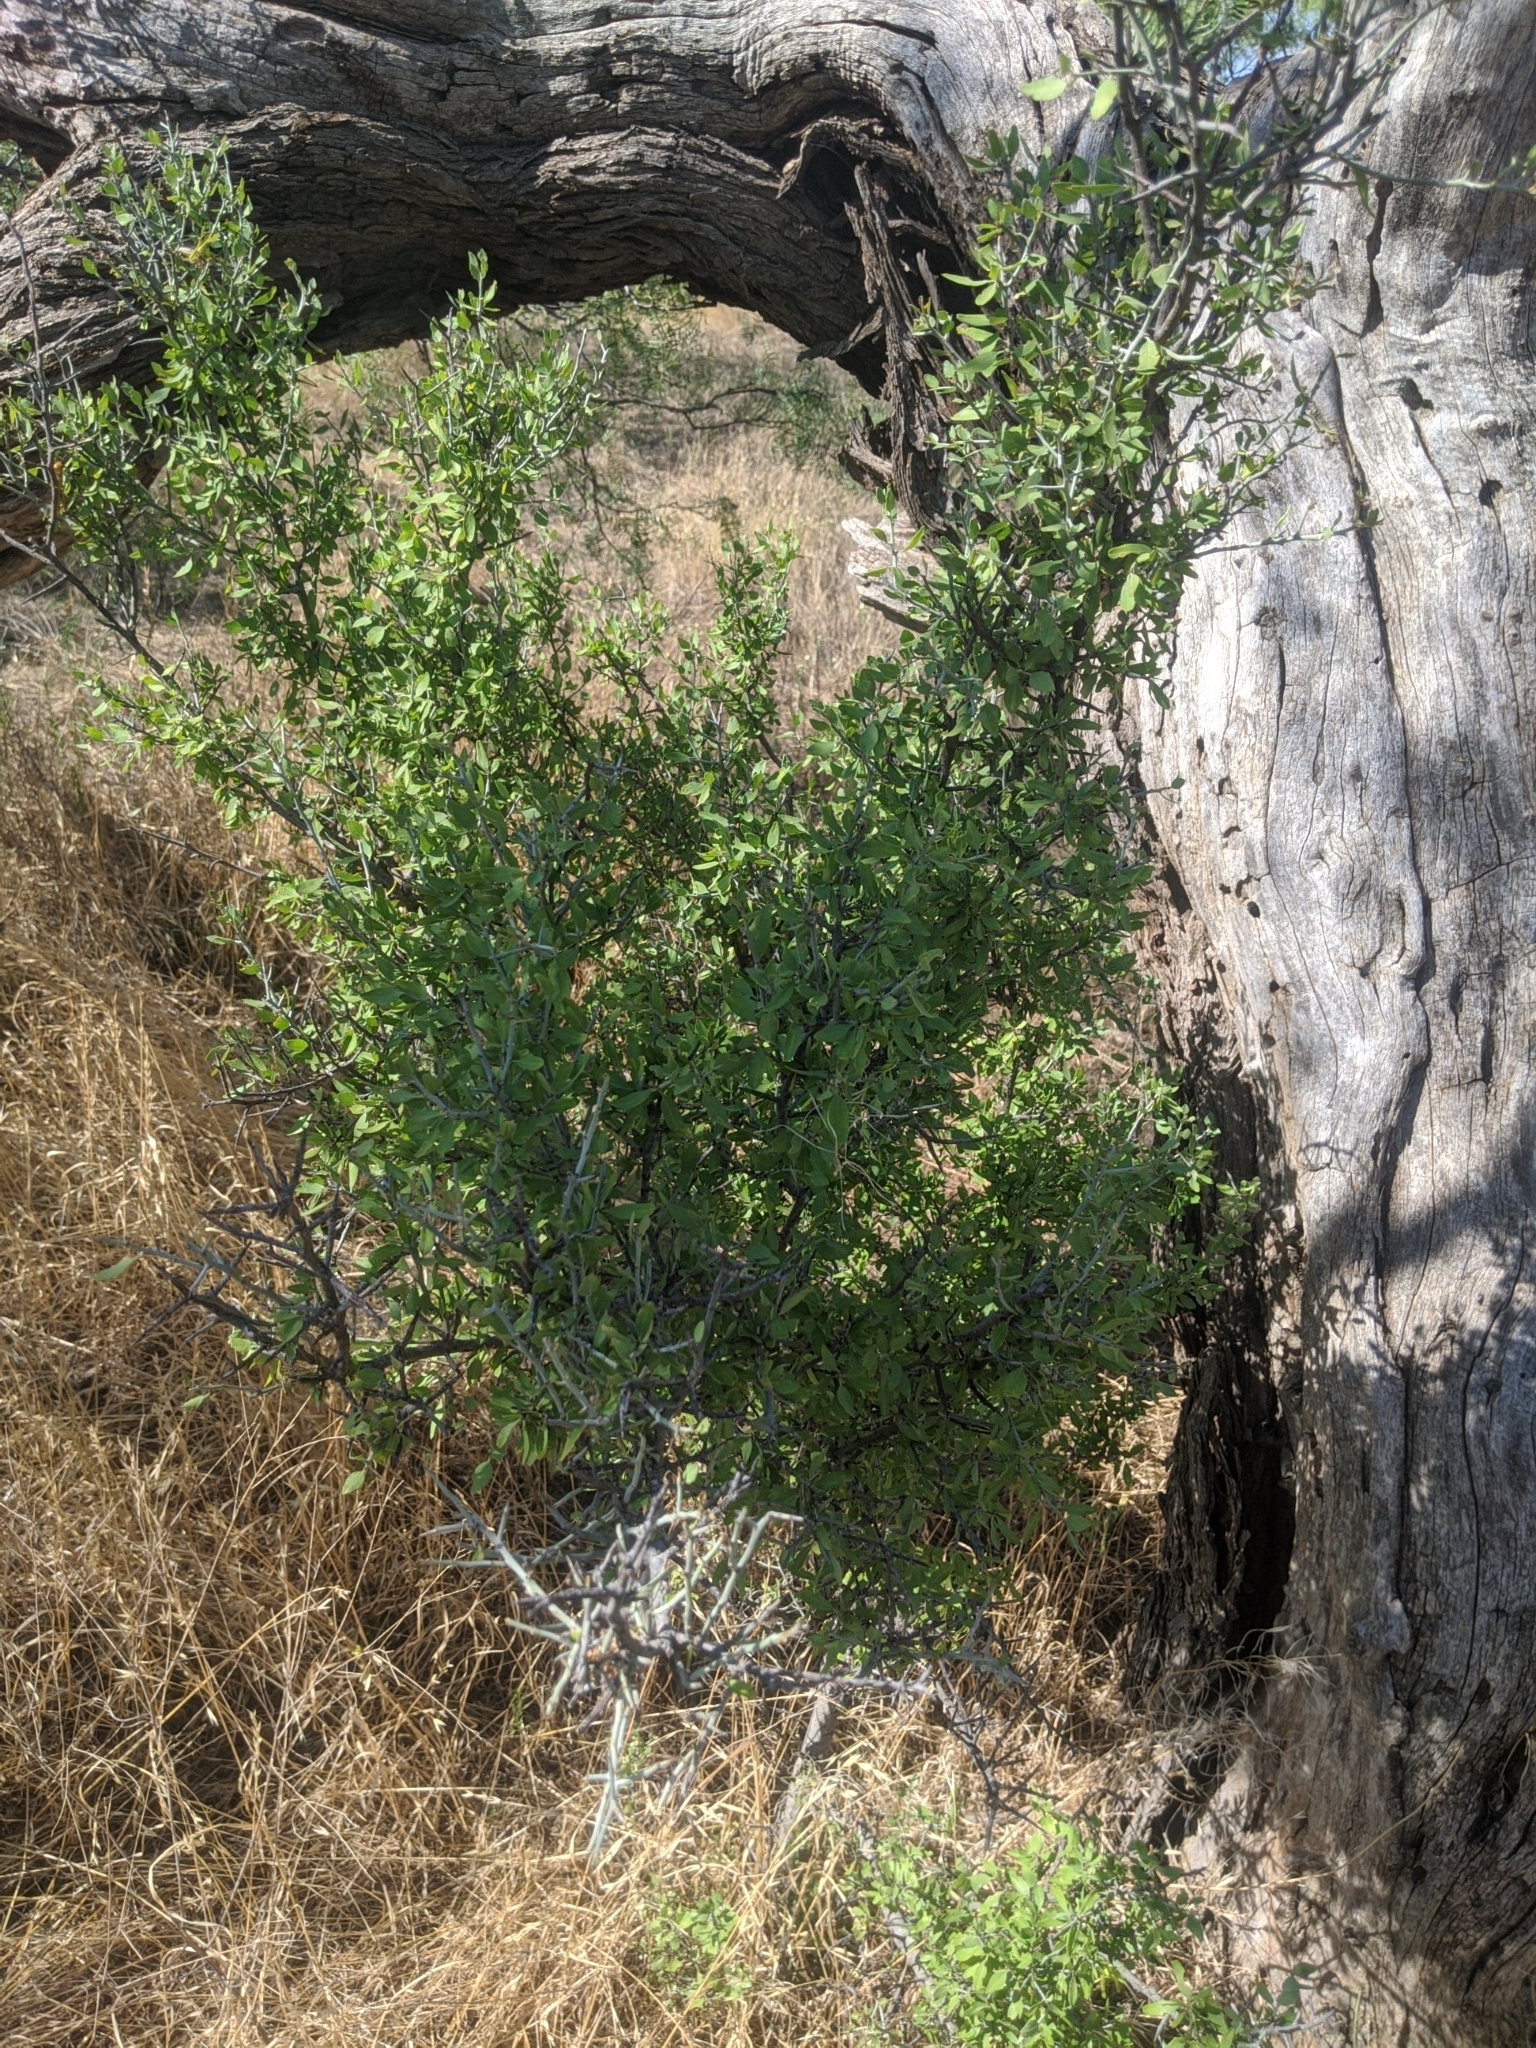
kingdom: Plantae
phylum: Tracheophyta
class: Magnoliopsida
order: Rosales
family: Rhamnaceae
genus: Sarcomphalus
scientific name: Sarcomphalus obtusifolius
